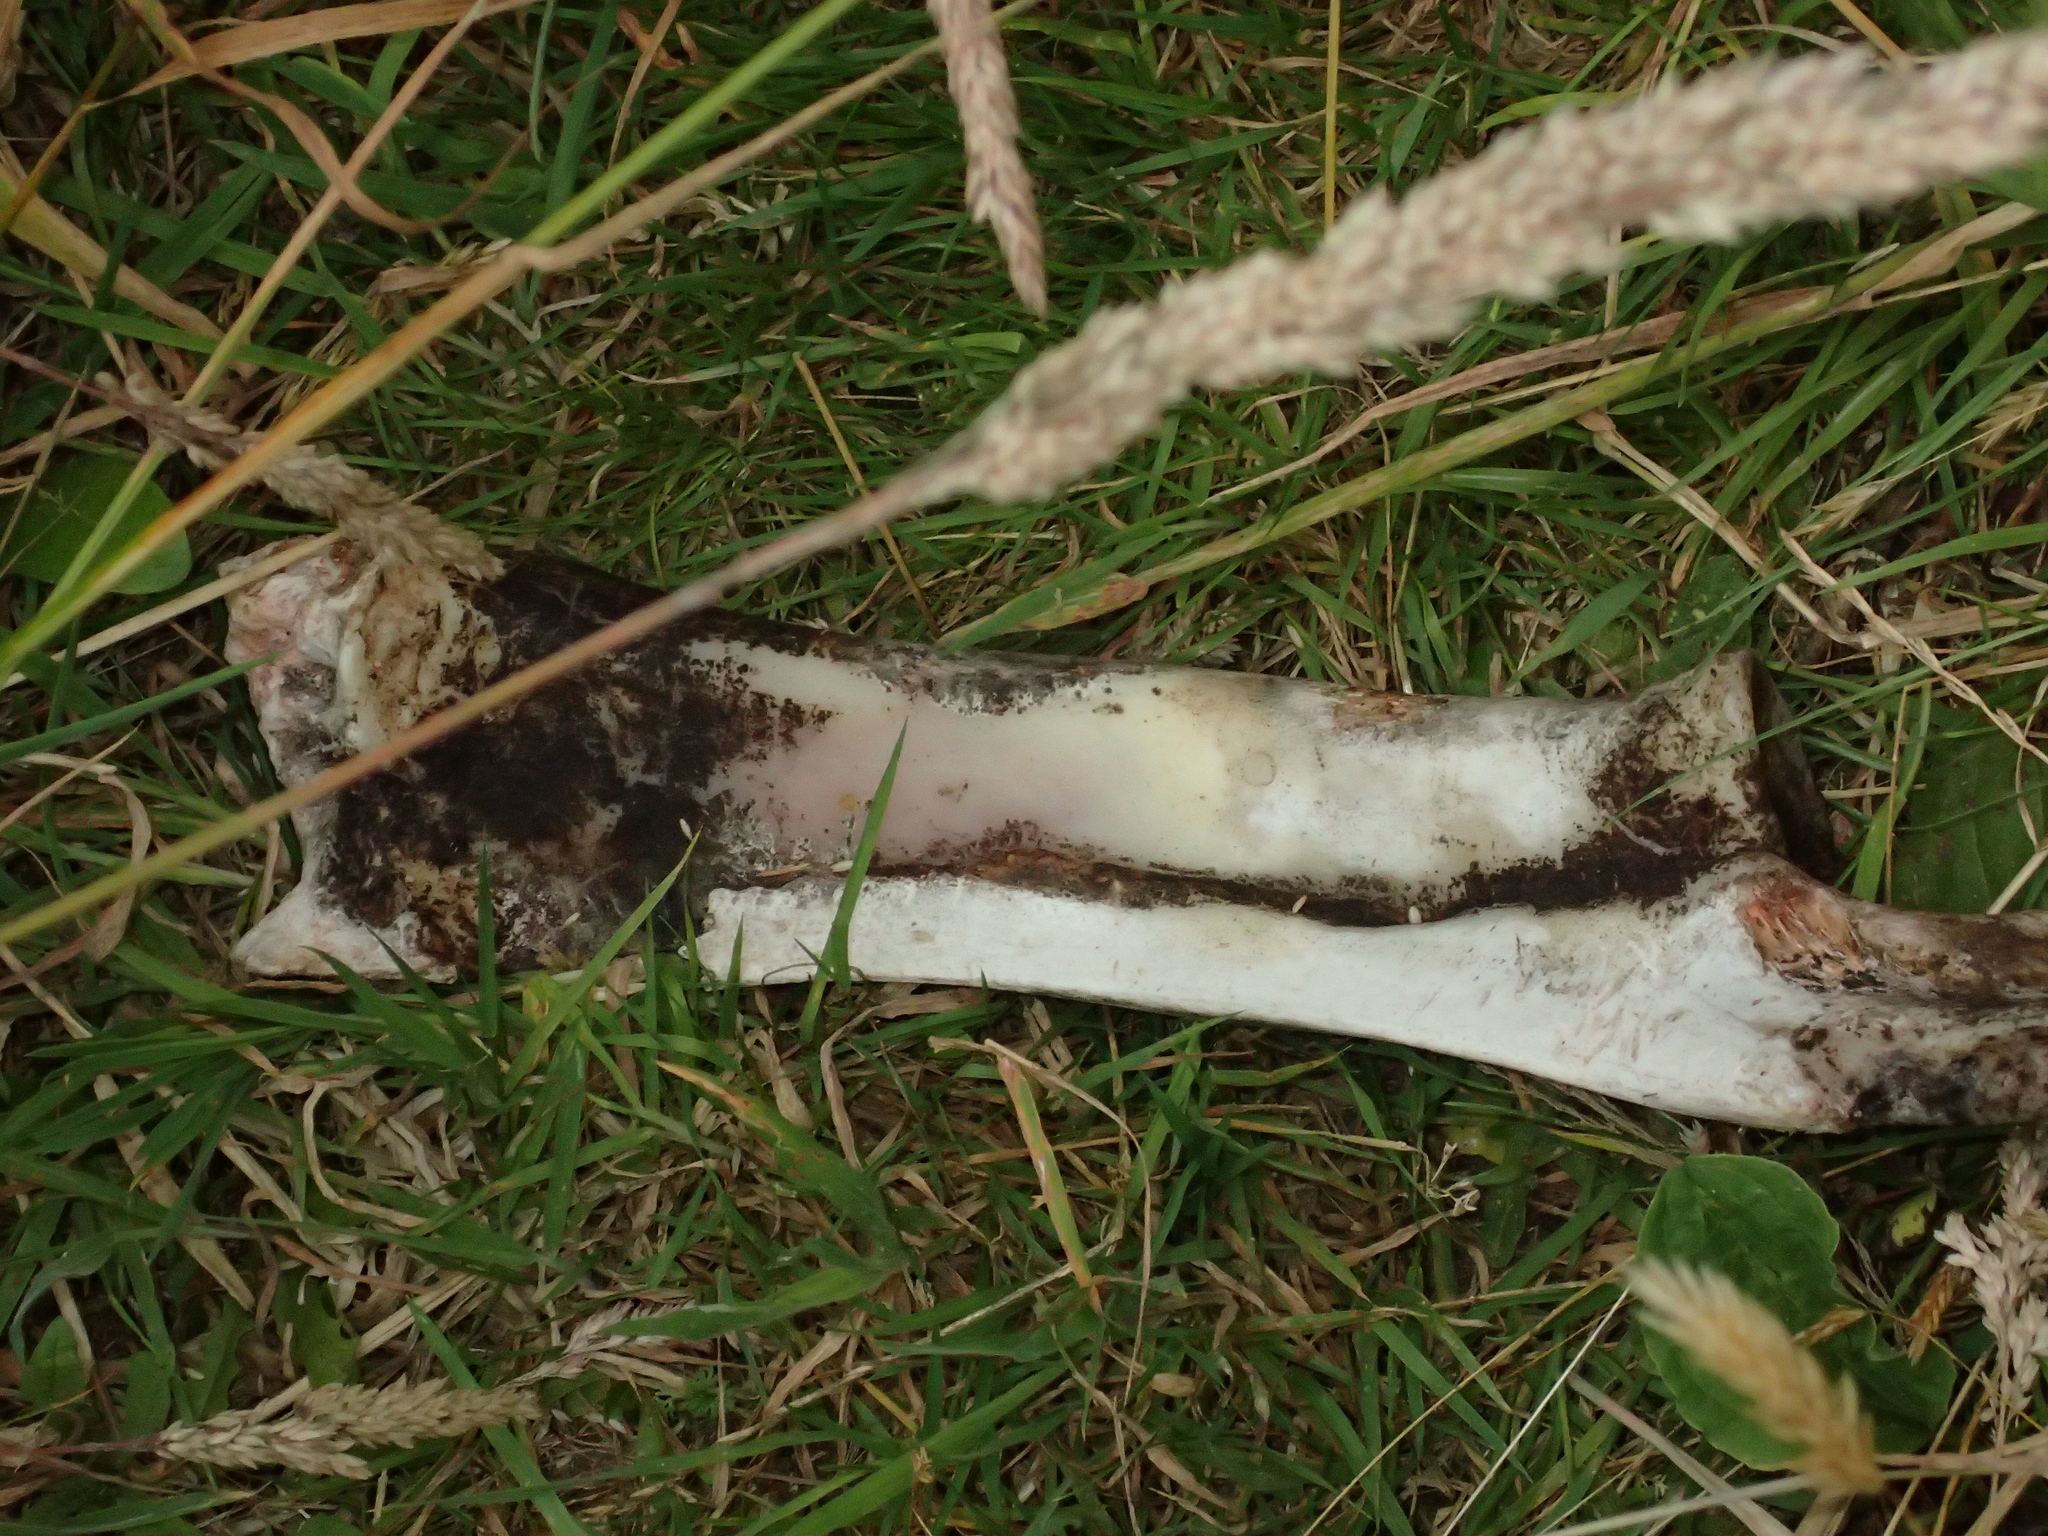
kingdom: Animalia
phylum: Chordata
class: Mammalia
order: Artiodactyla
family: Bovidae
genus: Bos
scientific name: Bos taurus
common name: Domesticated cattle
